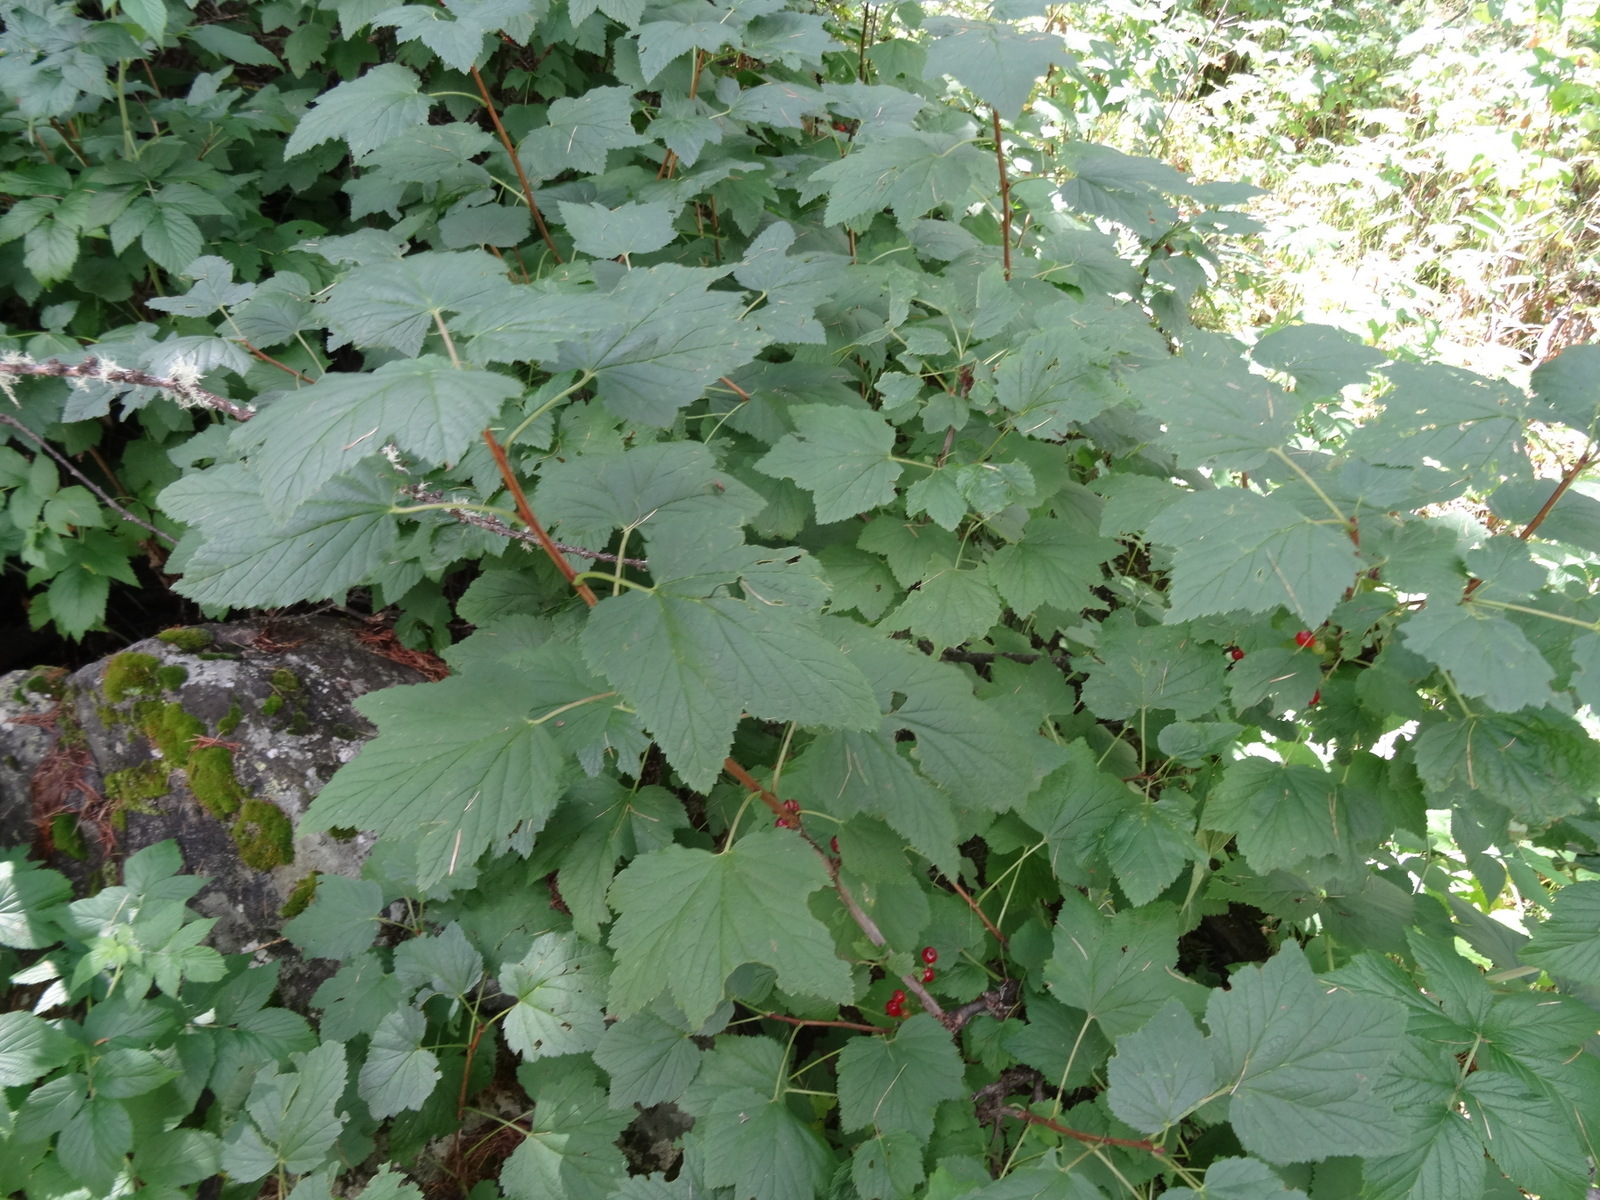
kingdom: Plantae
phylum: Tracheophyta
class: Magnoliopsida
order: Saxifragales
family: Grossulariaceae
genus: Ribes
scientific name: Ribes rubrum
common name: Red currant
